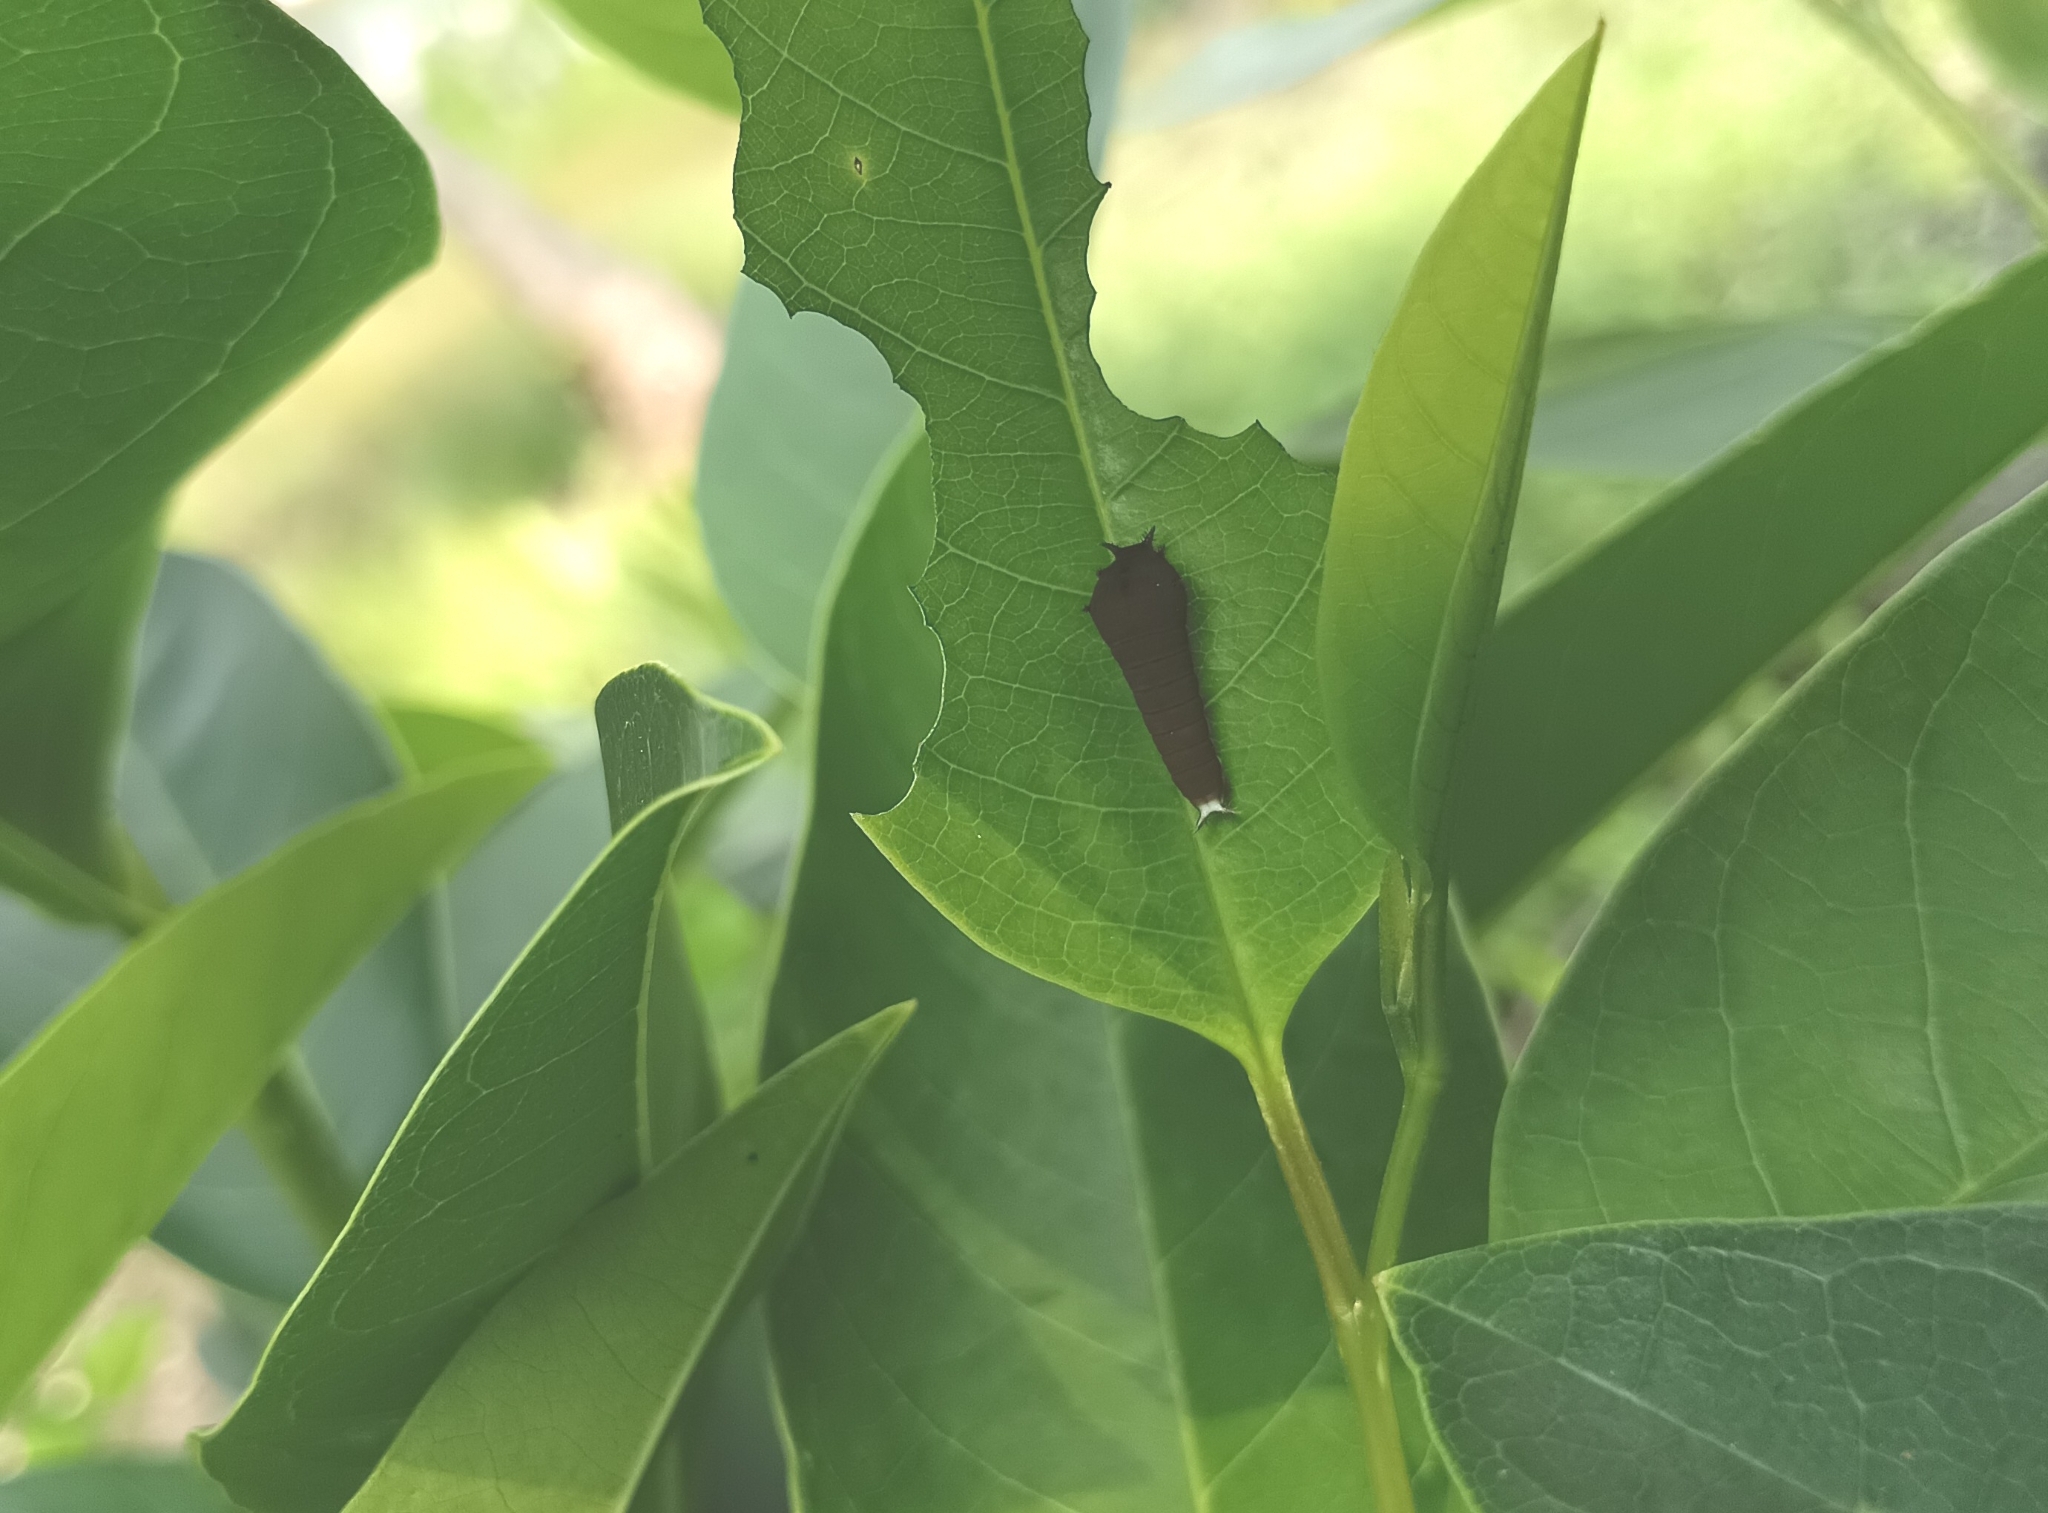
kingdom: Animalia
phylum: Arthropoda
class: Insecta
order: Lepidoptera
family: Papilionidae
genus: Graphium
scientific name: Graphium doson
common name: Common jay
